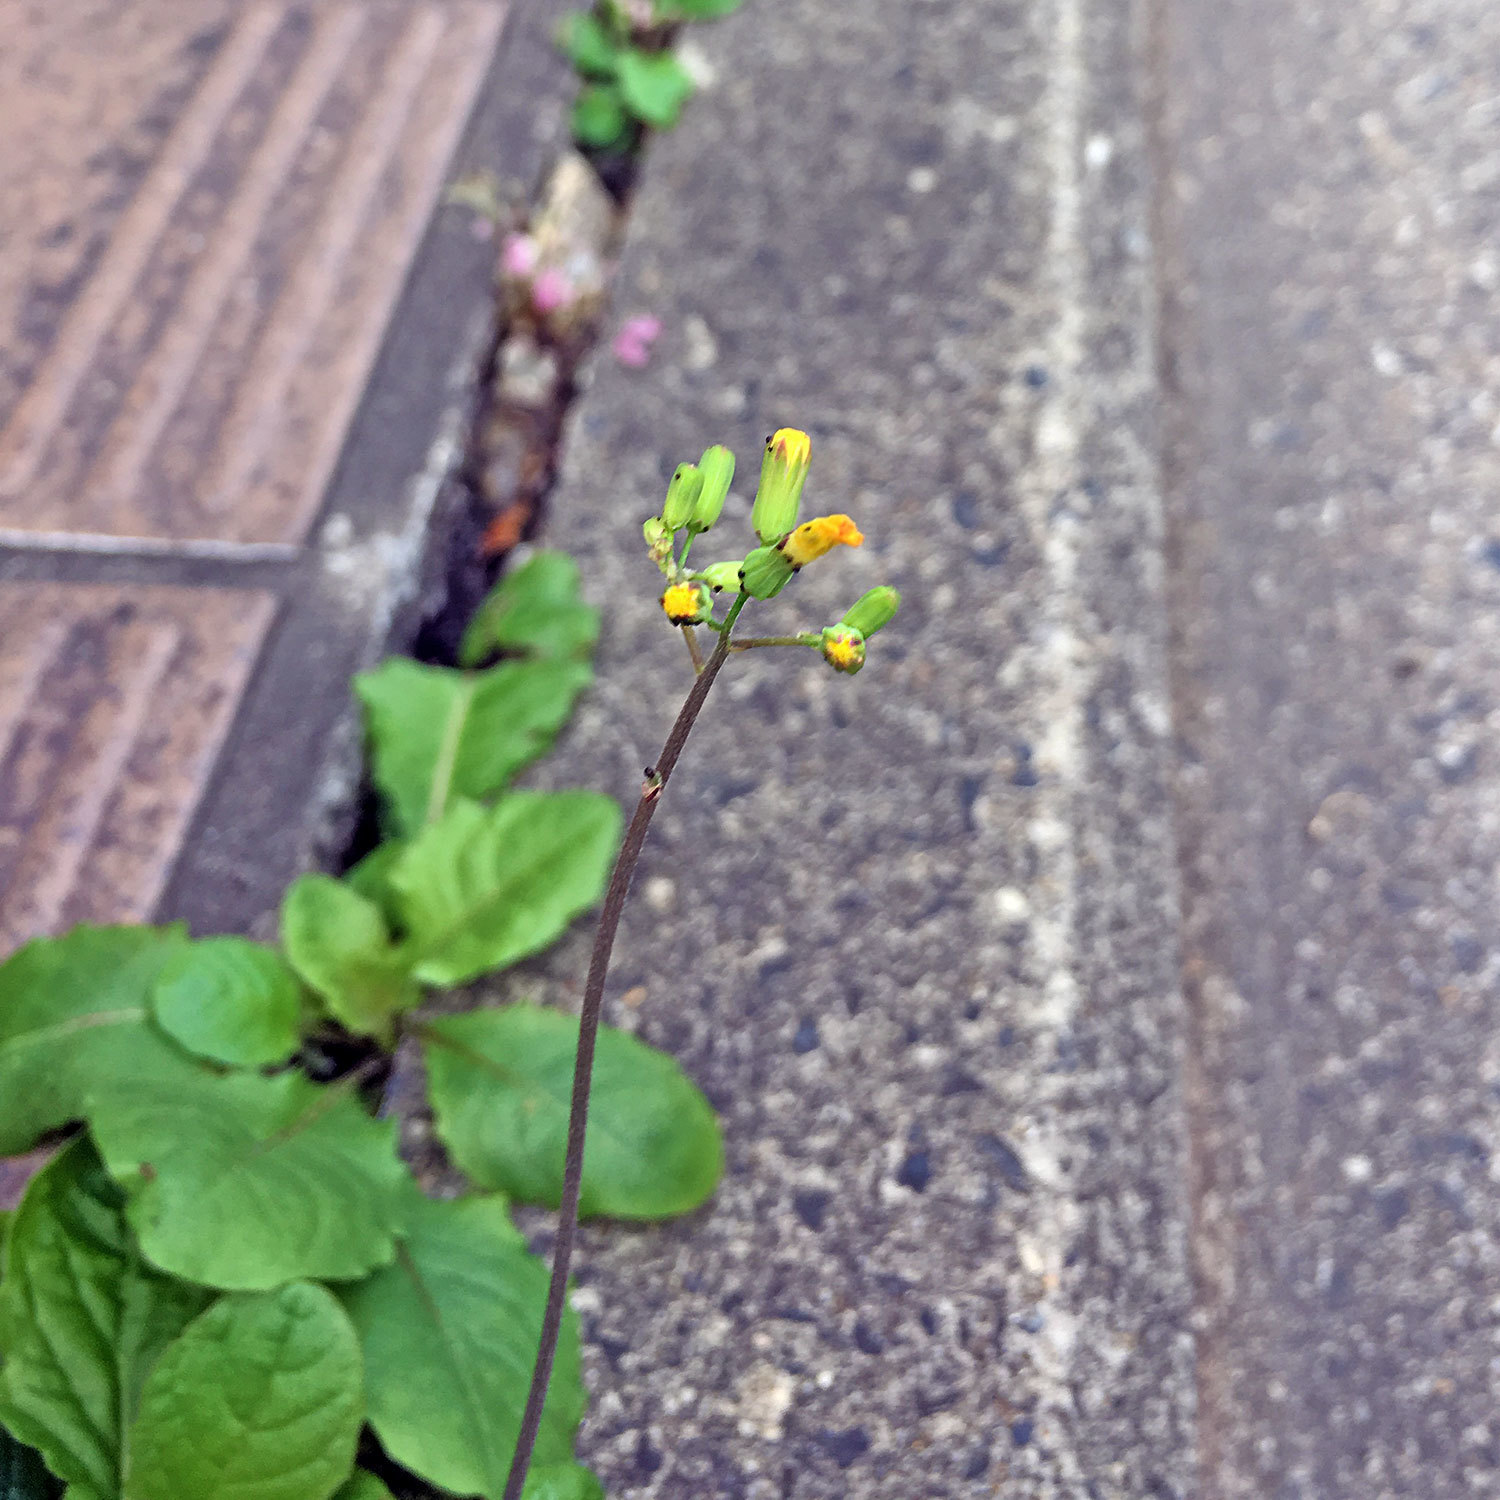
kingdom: Plantae
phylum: Tracheophyta
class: Magnoliopsida
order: Asterales
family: Asteraceae
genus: Youngia
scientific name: Youngia japonica
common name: Oriental false hawksbeard
